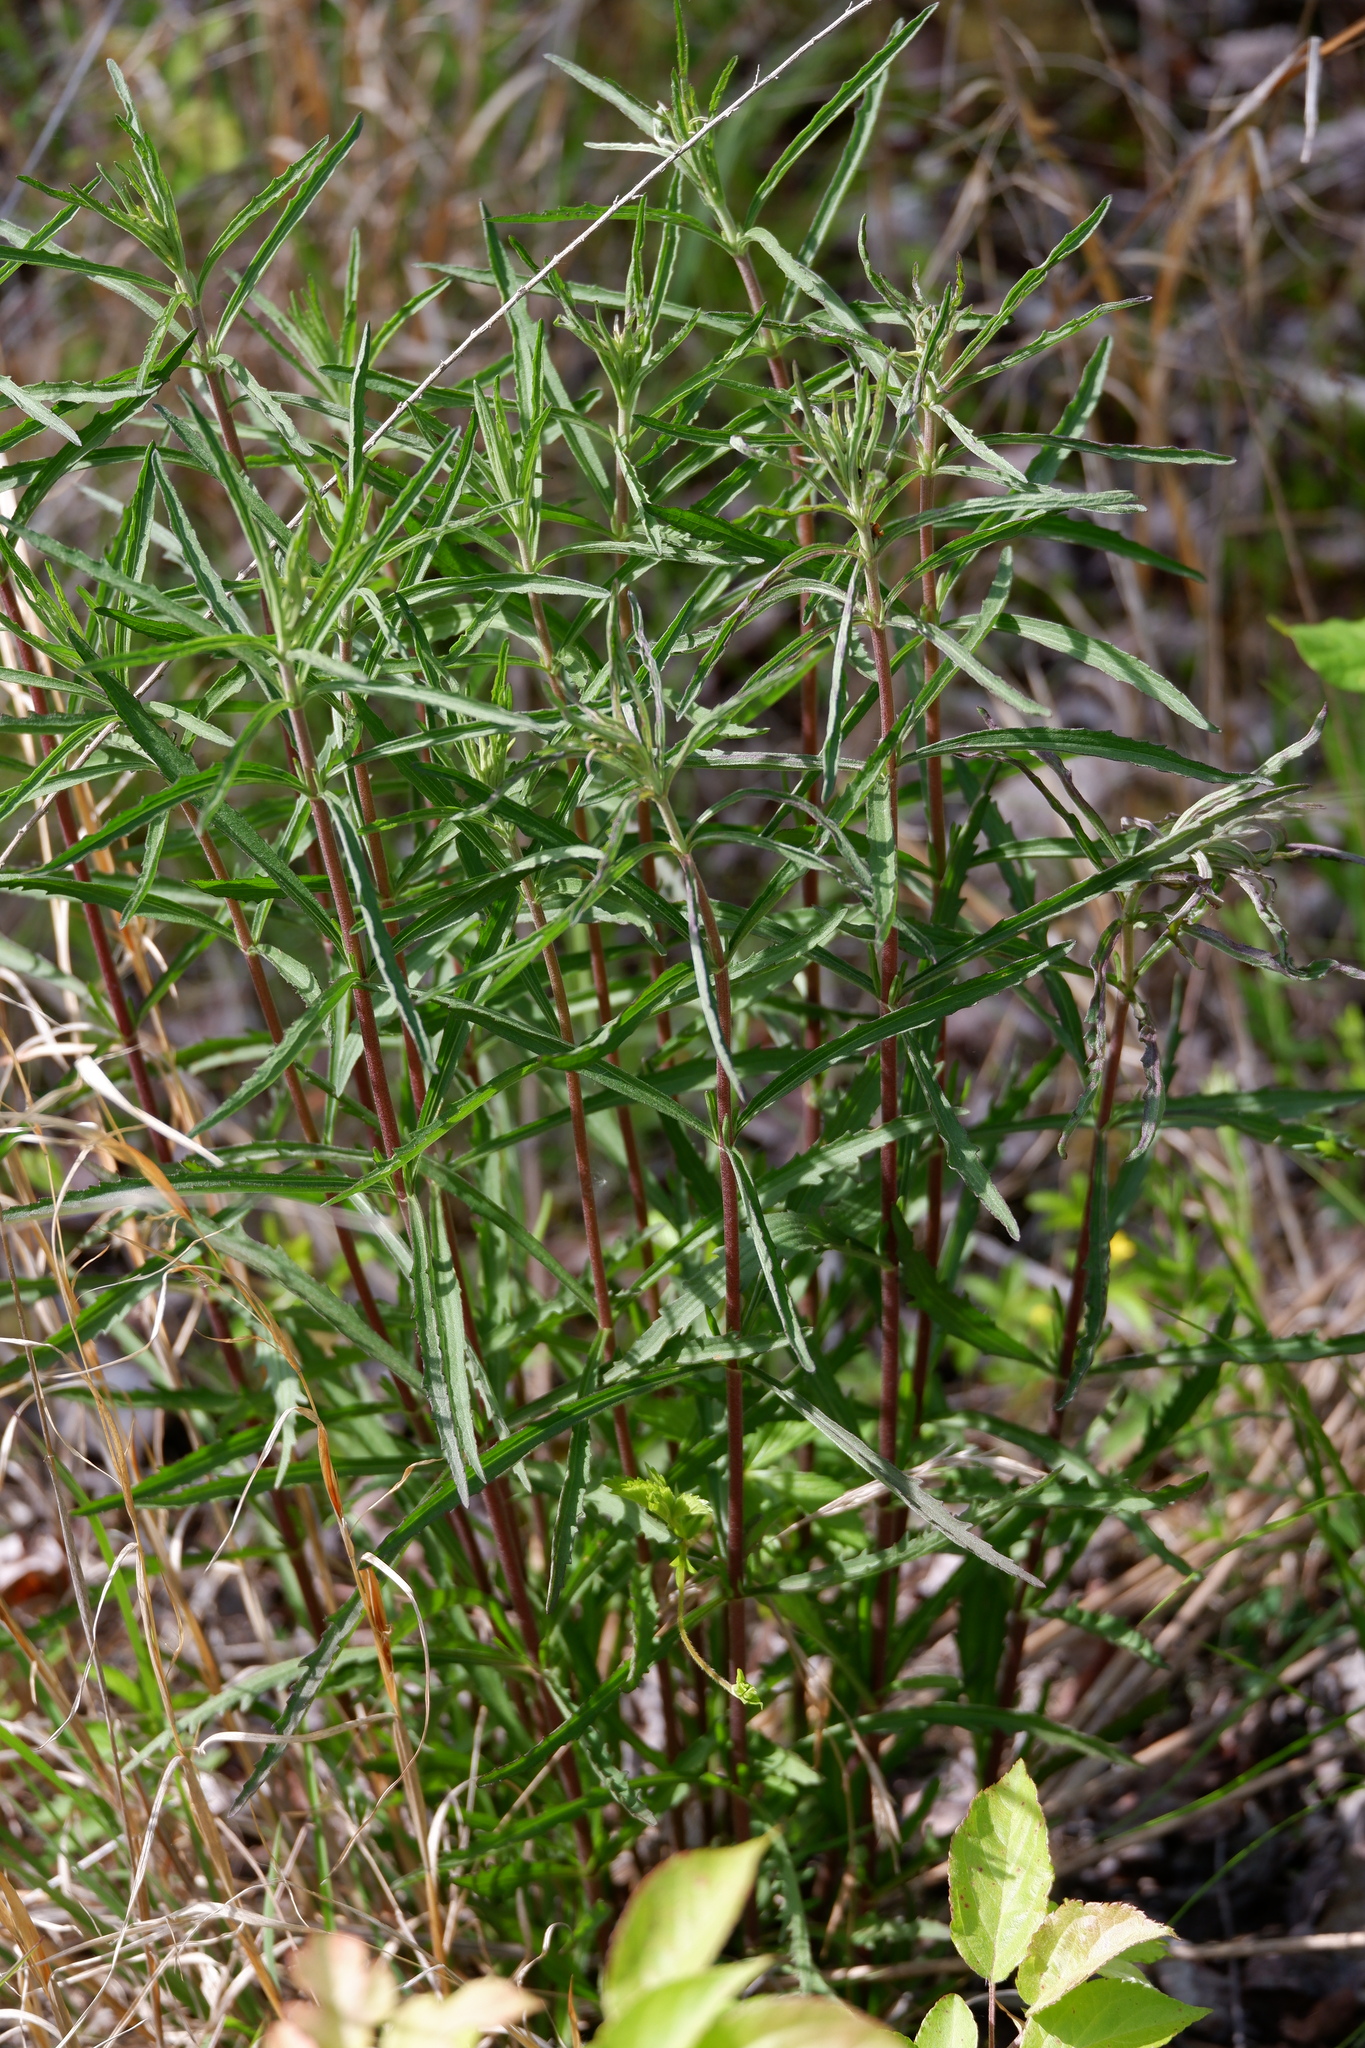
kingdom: Plantae
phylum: Tracheophyta
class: Magnoliopsida
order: Asterales
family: Asteraceae
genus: Eupatorium
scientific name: Eupatorium torreyanum
